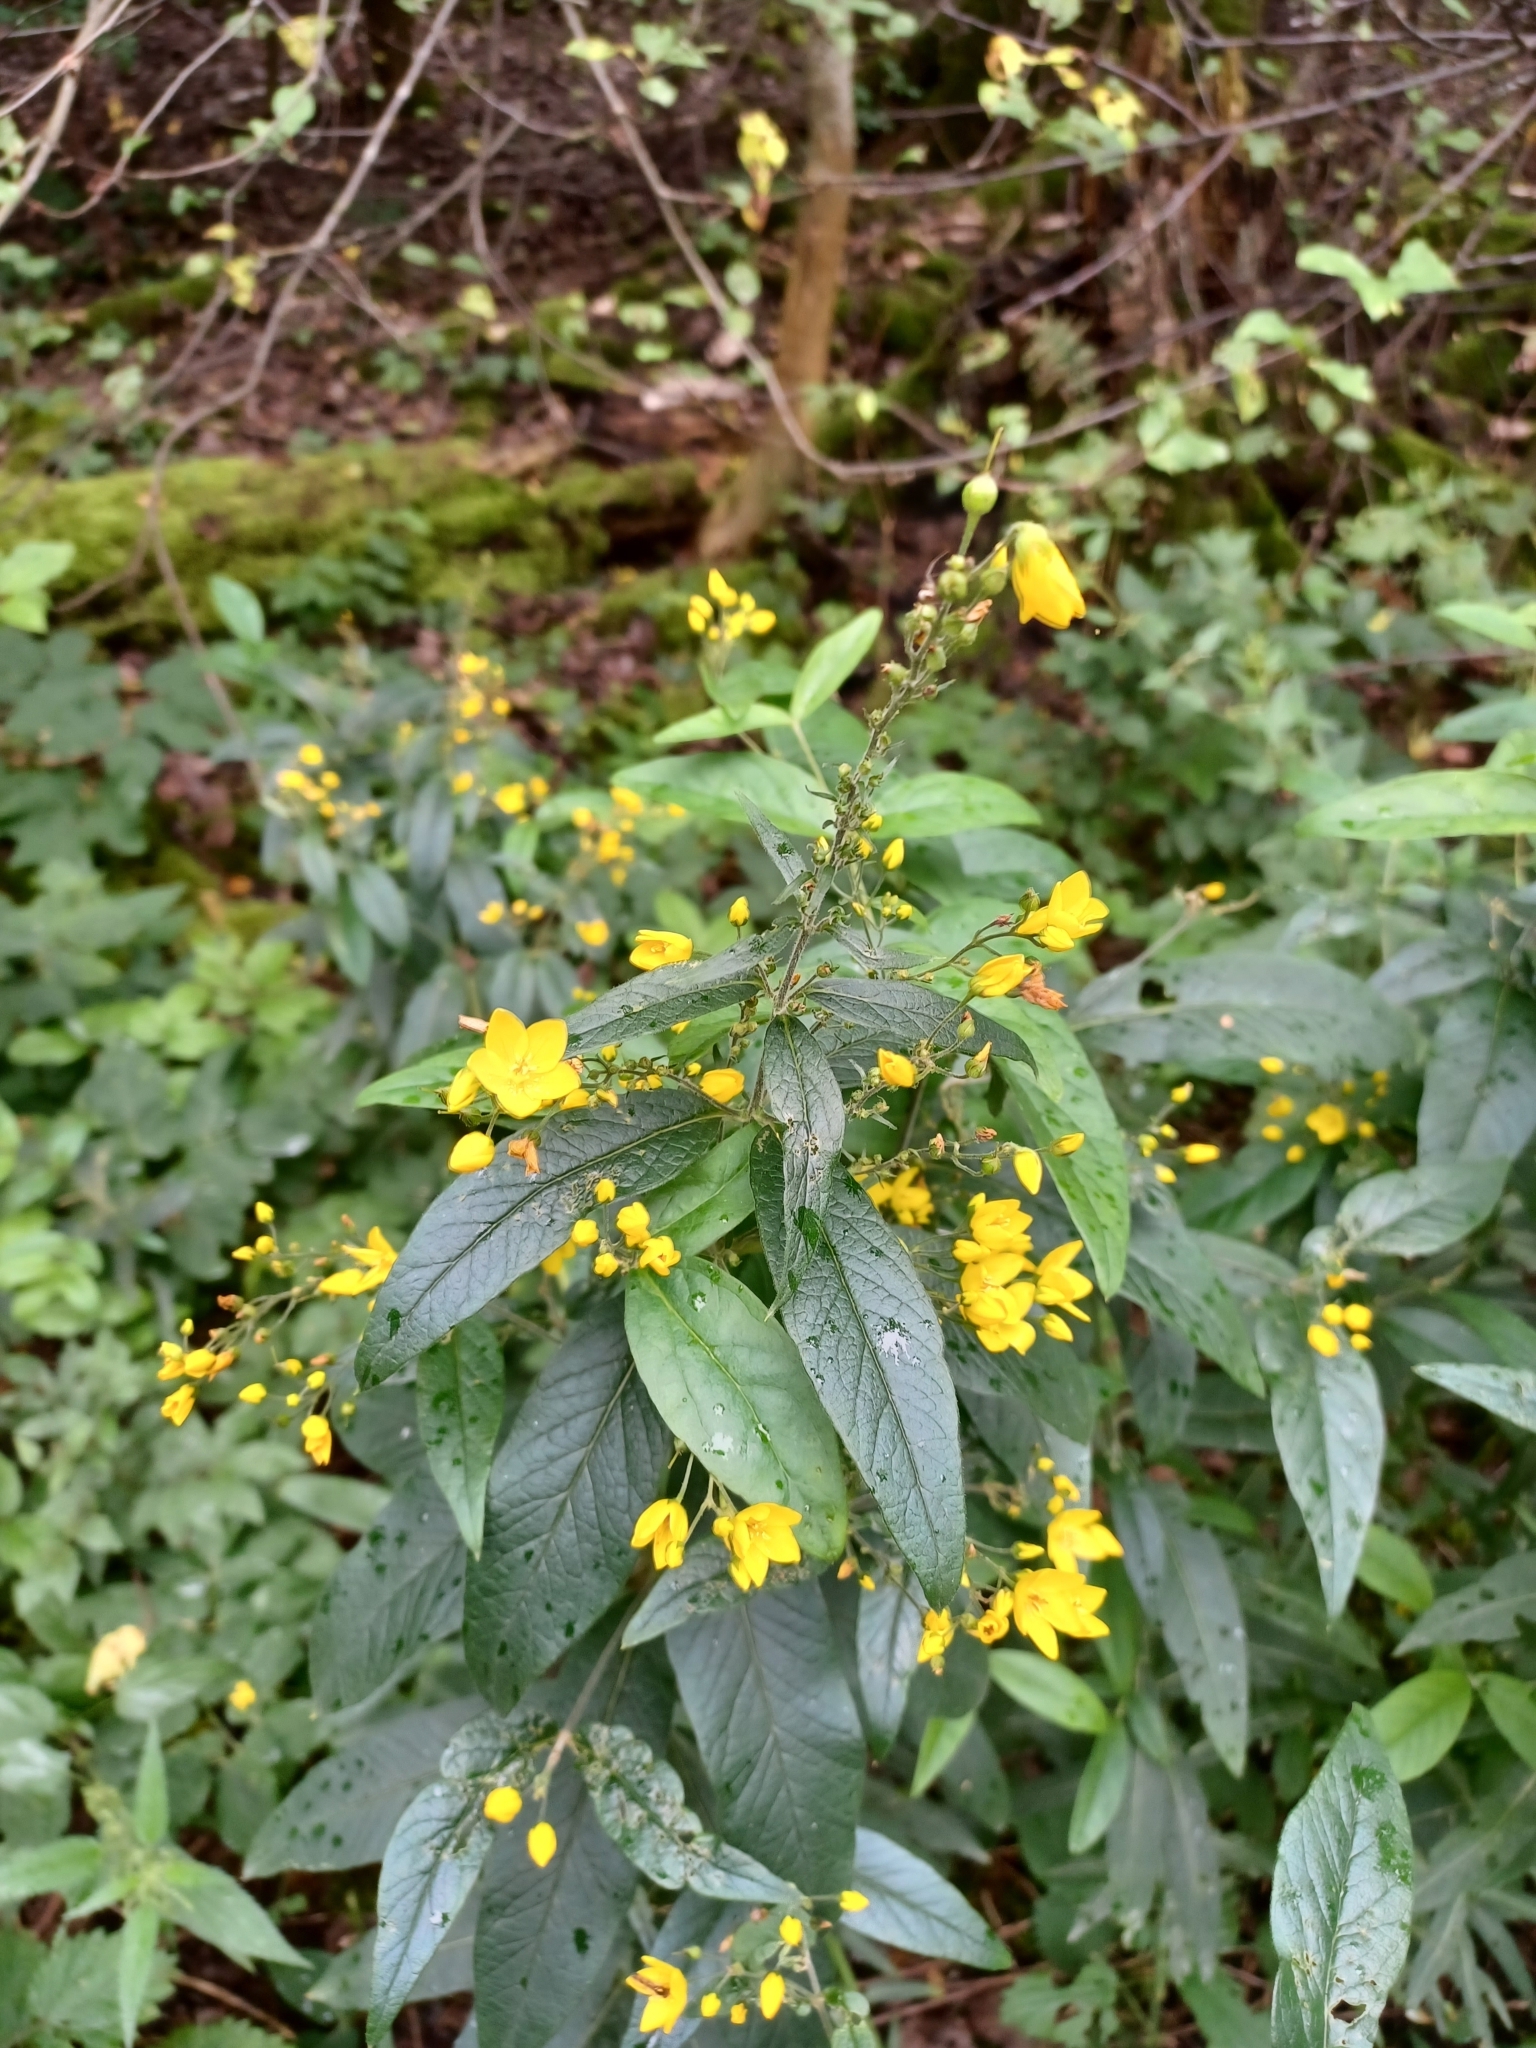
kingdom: Plantae
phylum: Tracheophyta
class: Magnoliopsida
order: Ericales
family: Primulaceae
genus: Lysimachia
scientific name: Lysimachia vulgaris
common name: Yellow loosestrife
